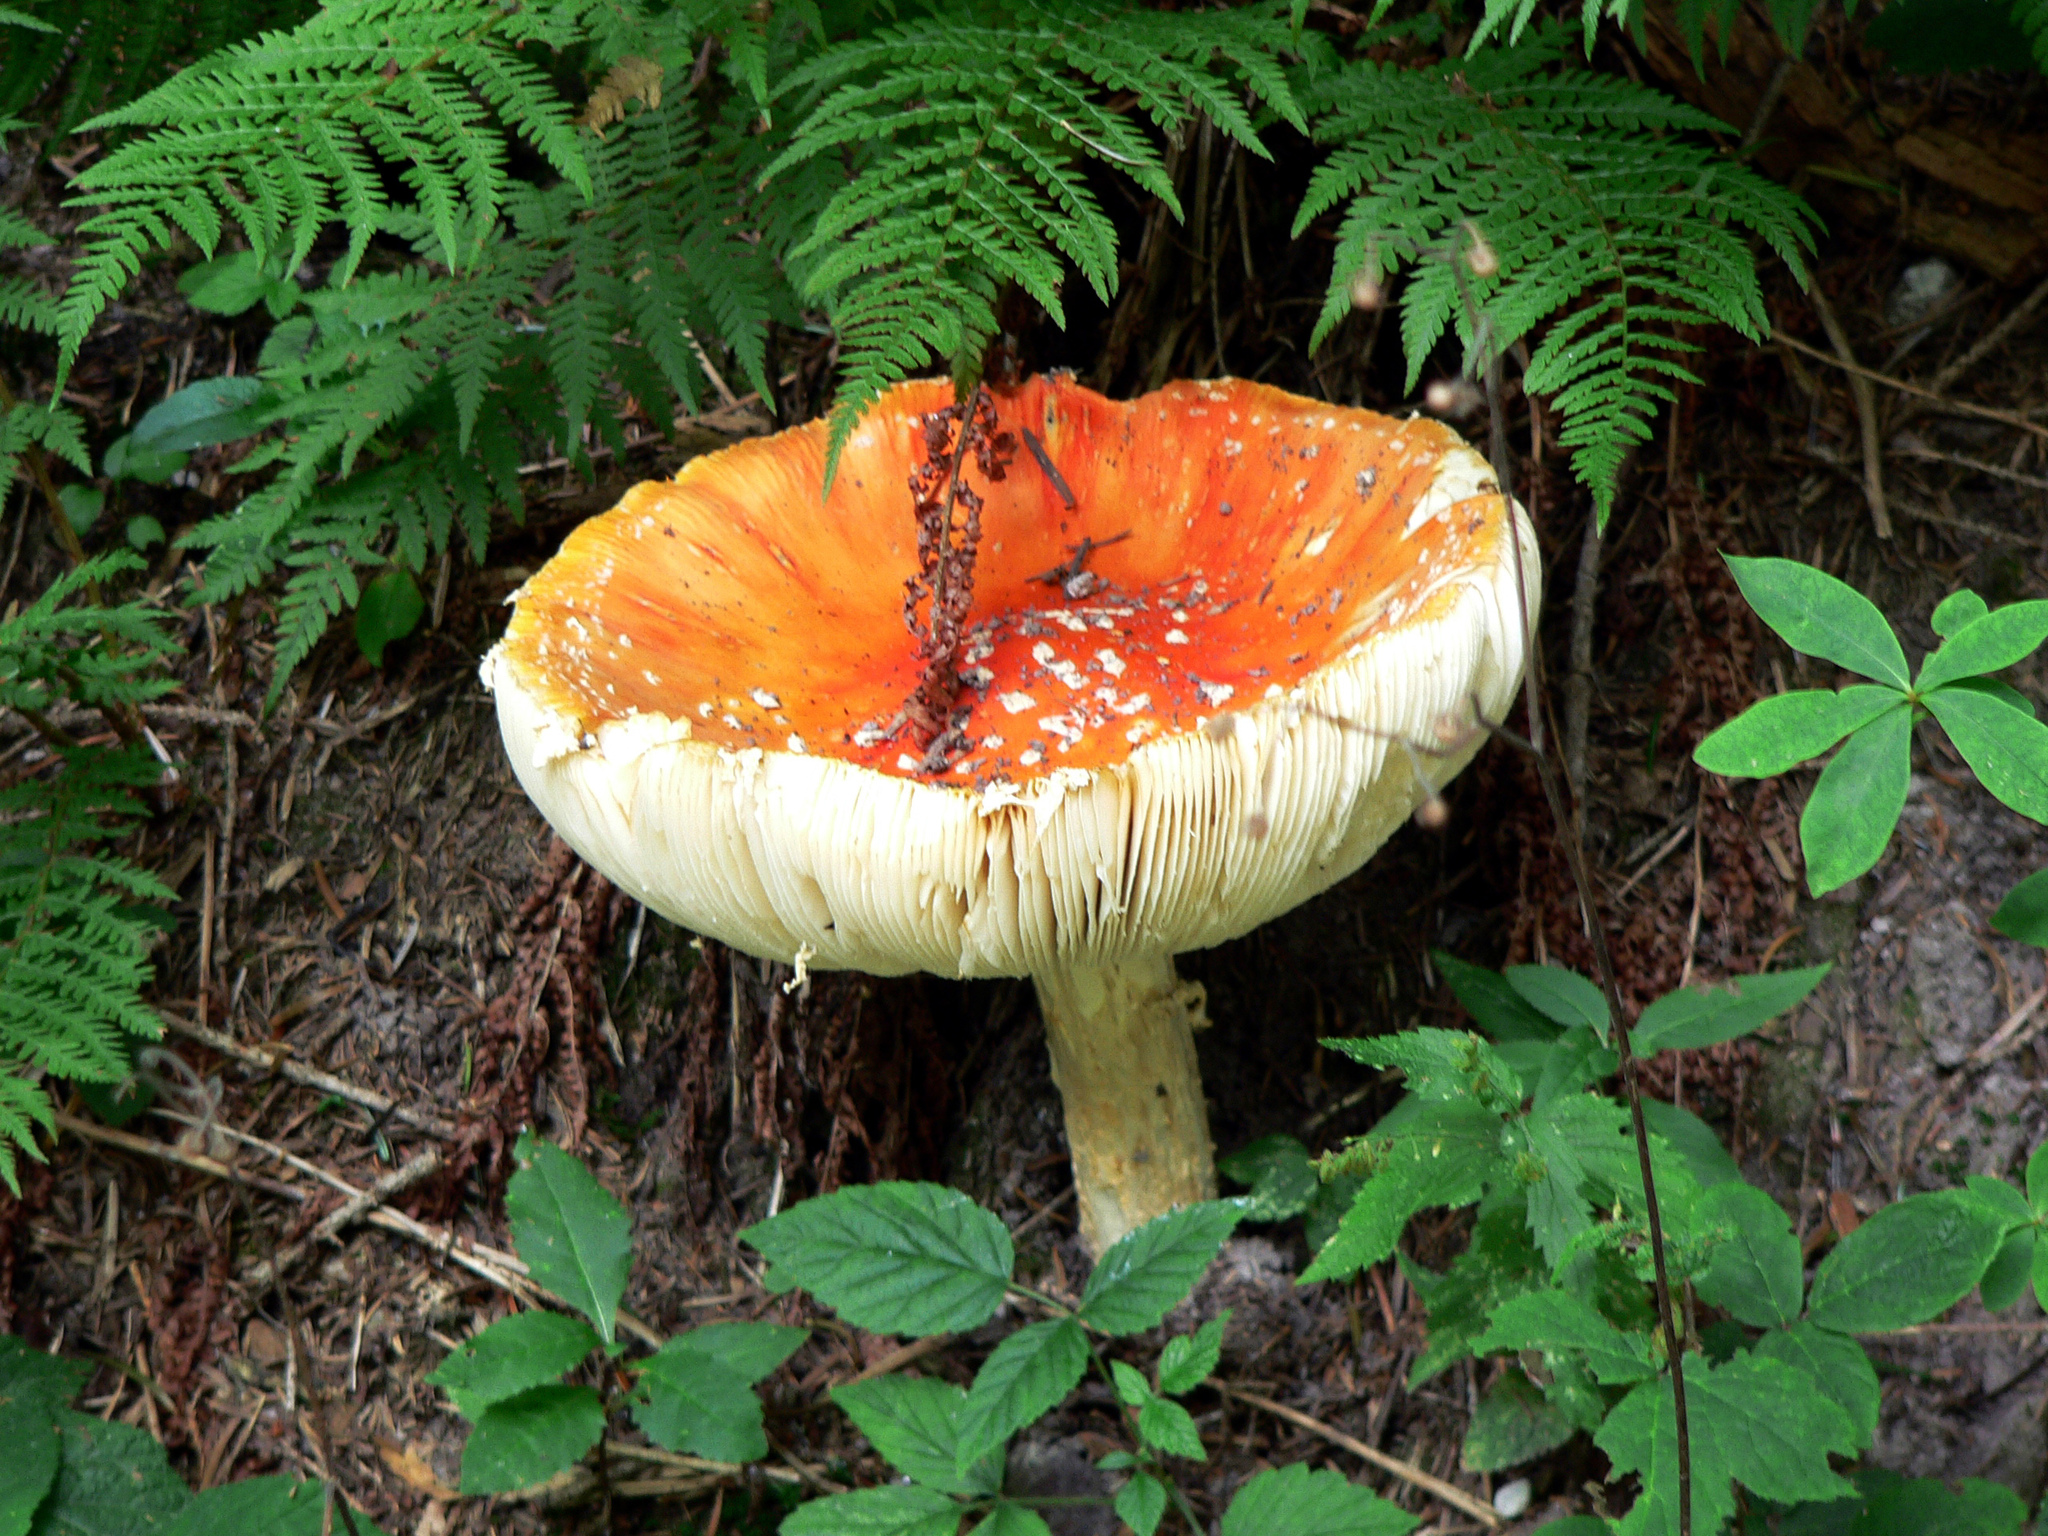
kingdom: Fungi
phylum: Basidiomycota
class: Agaricomycetes
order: Agaricales
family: Amanitaceae
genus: Amanita
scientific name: Amanita muscaria
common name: Fly agaric
